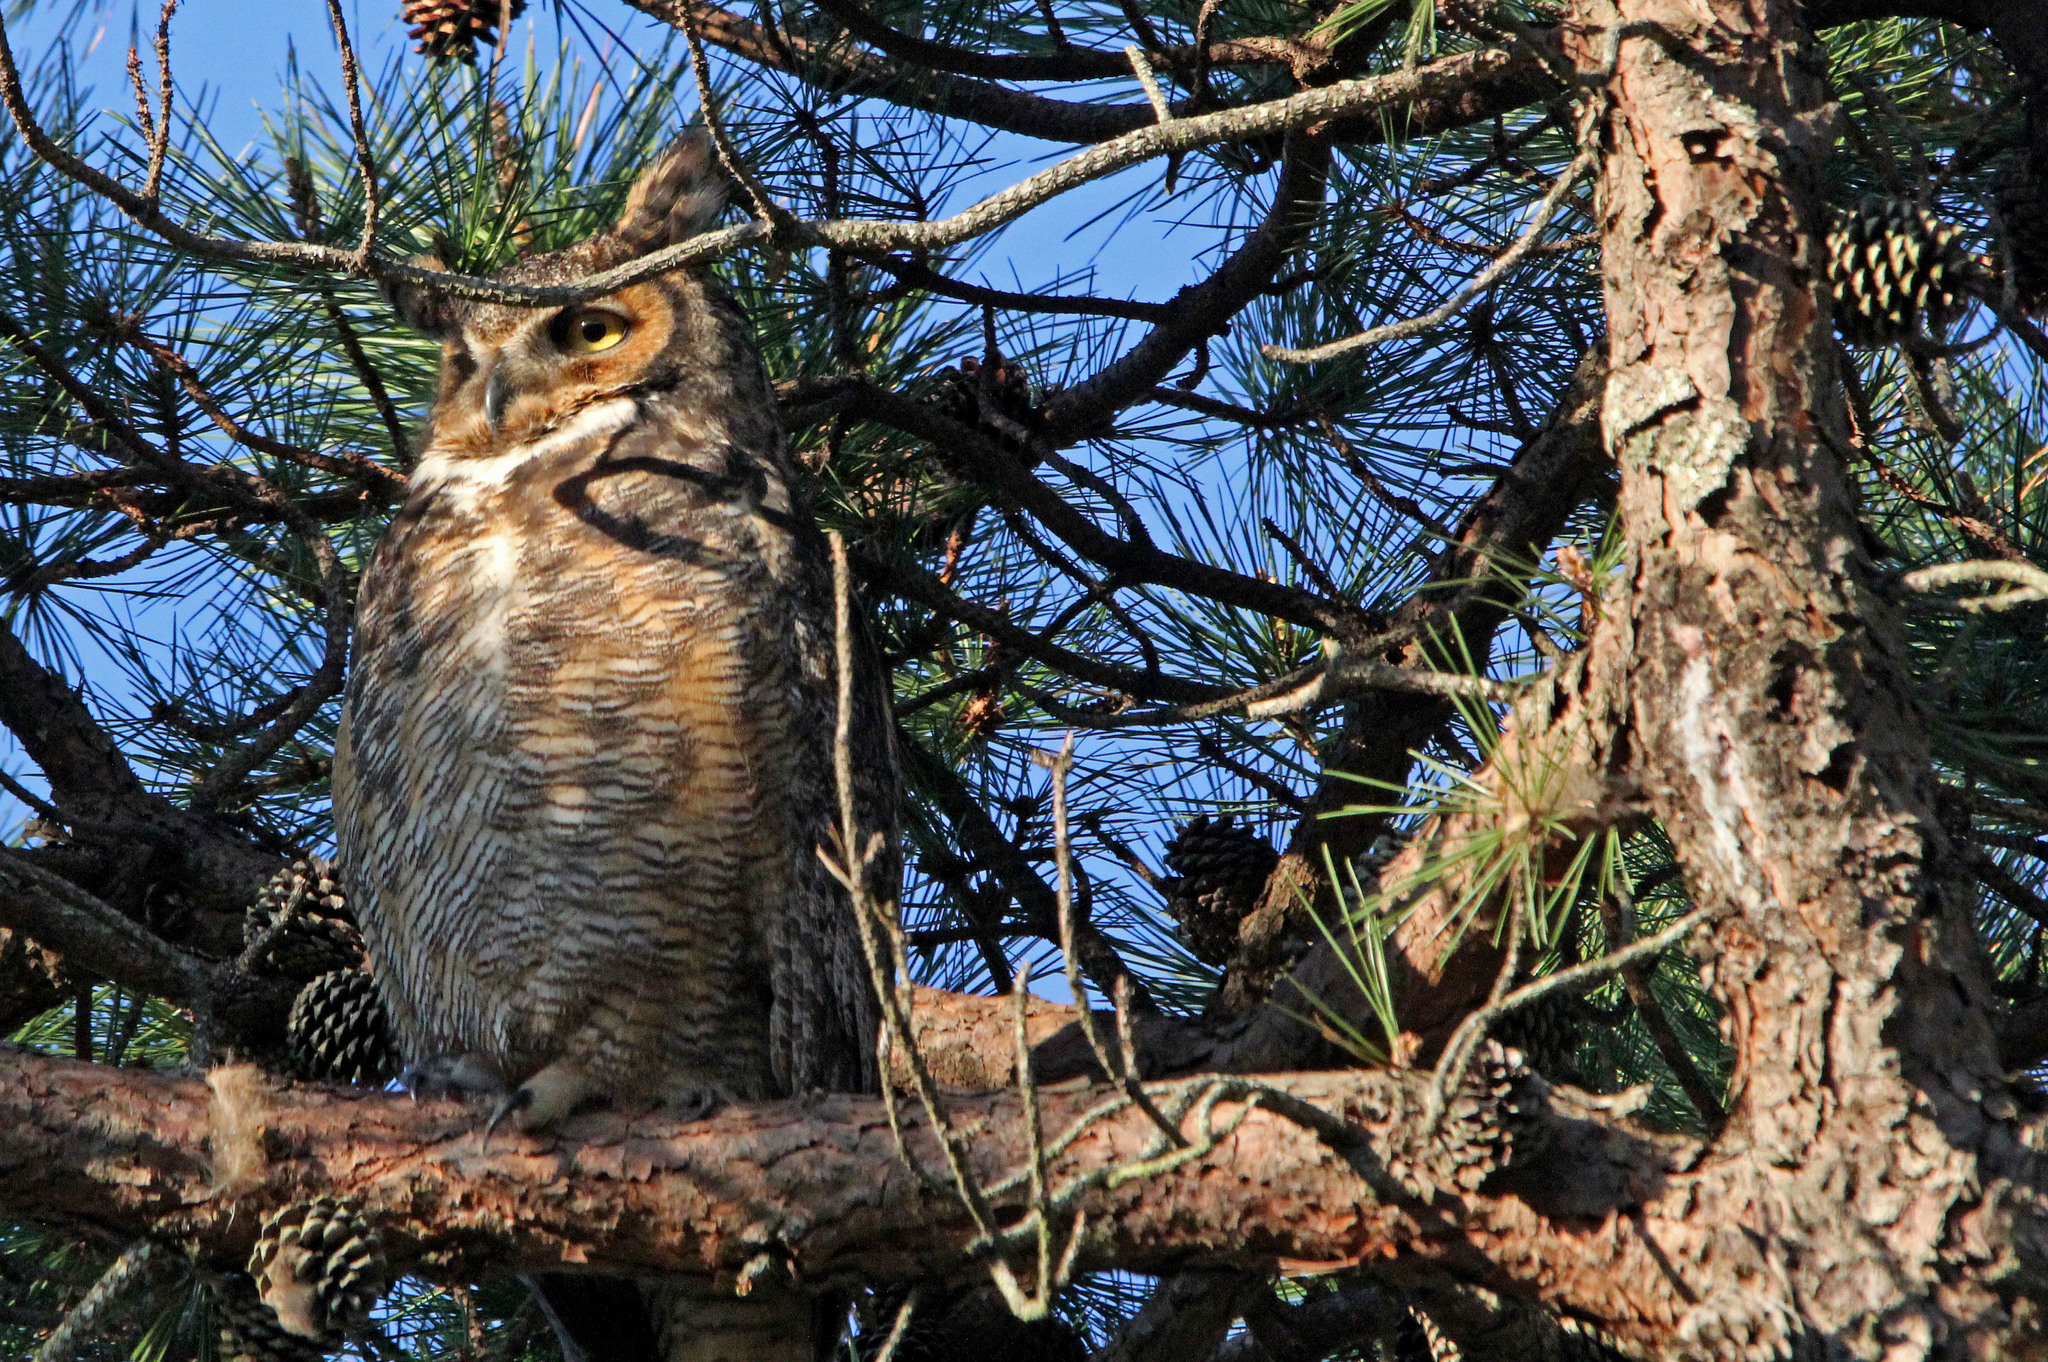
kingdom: Animalia
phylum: Chordata
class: Aves
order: Strigiformes
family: Strigidae
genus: Bubo
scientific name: Bubo virginianus
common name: Great horned owl
